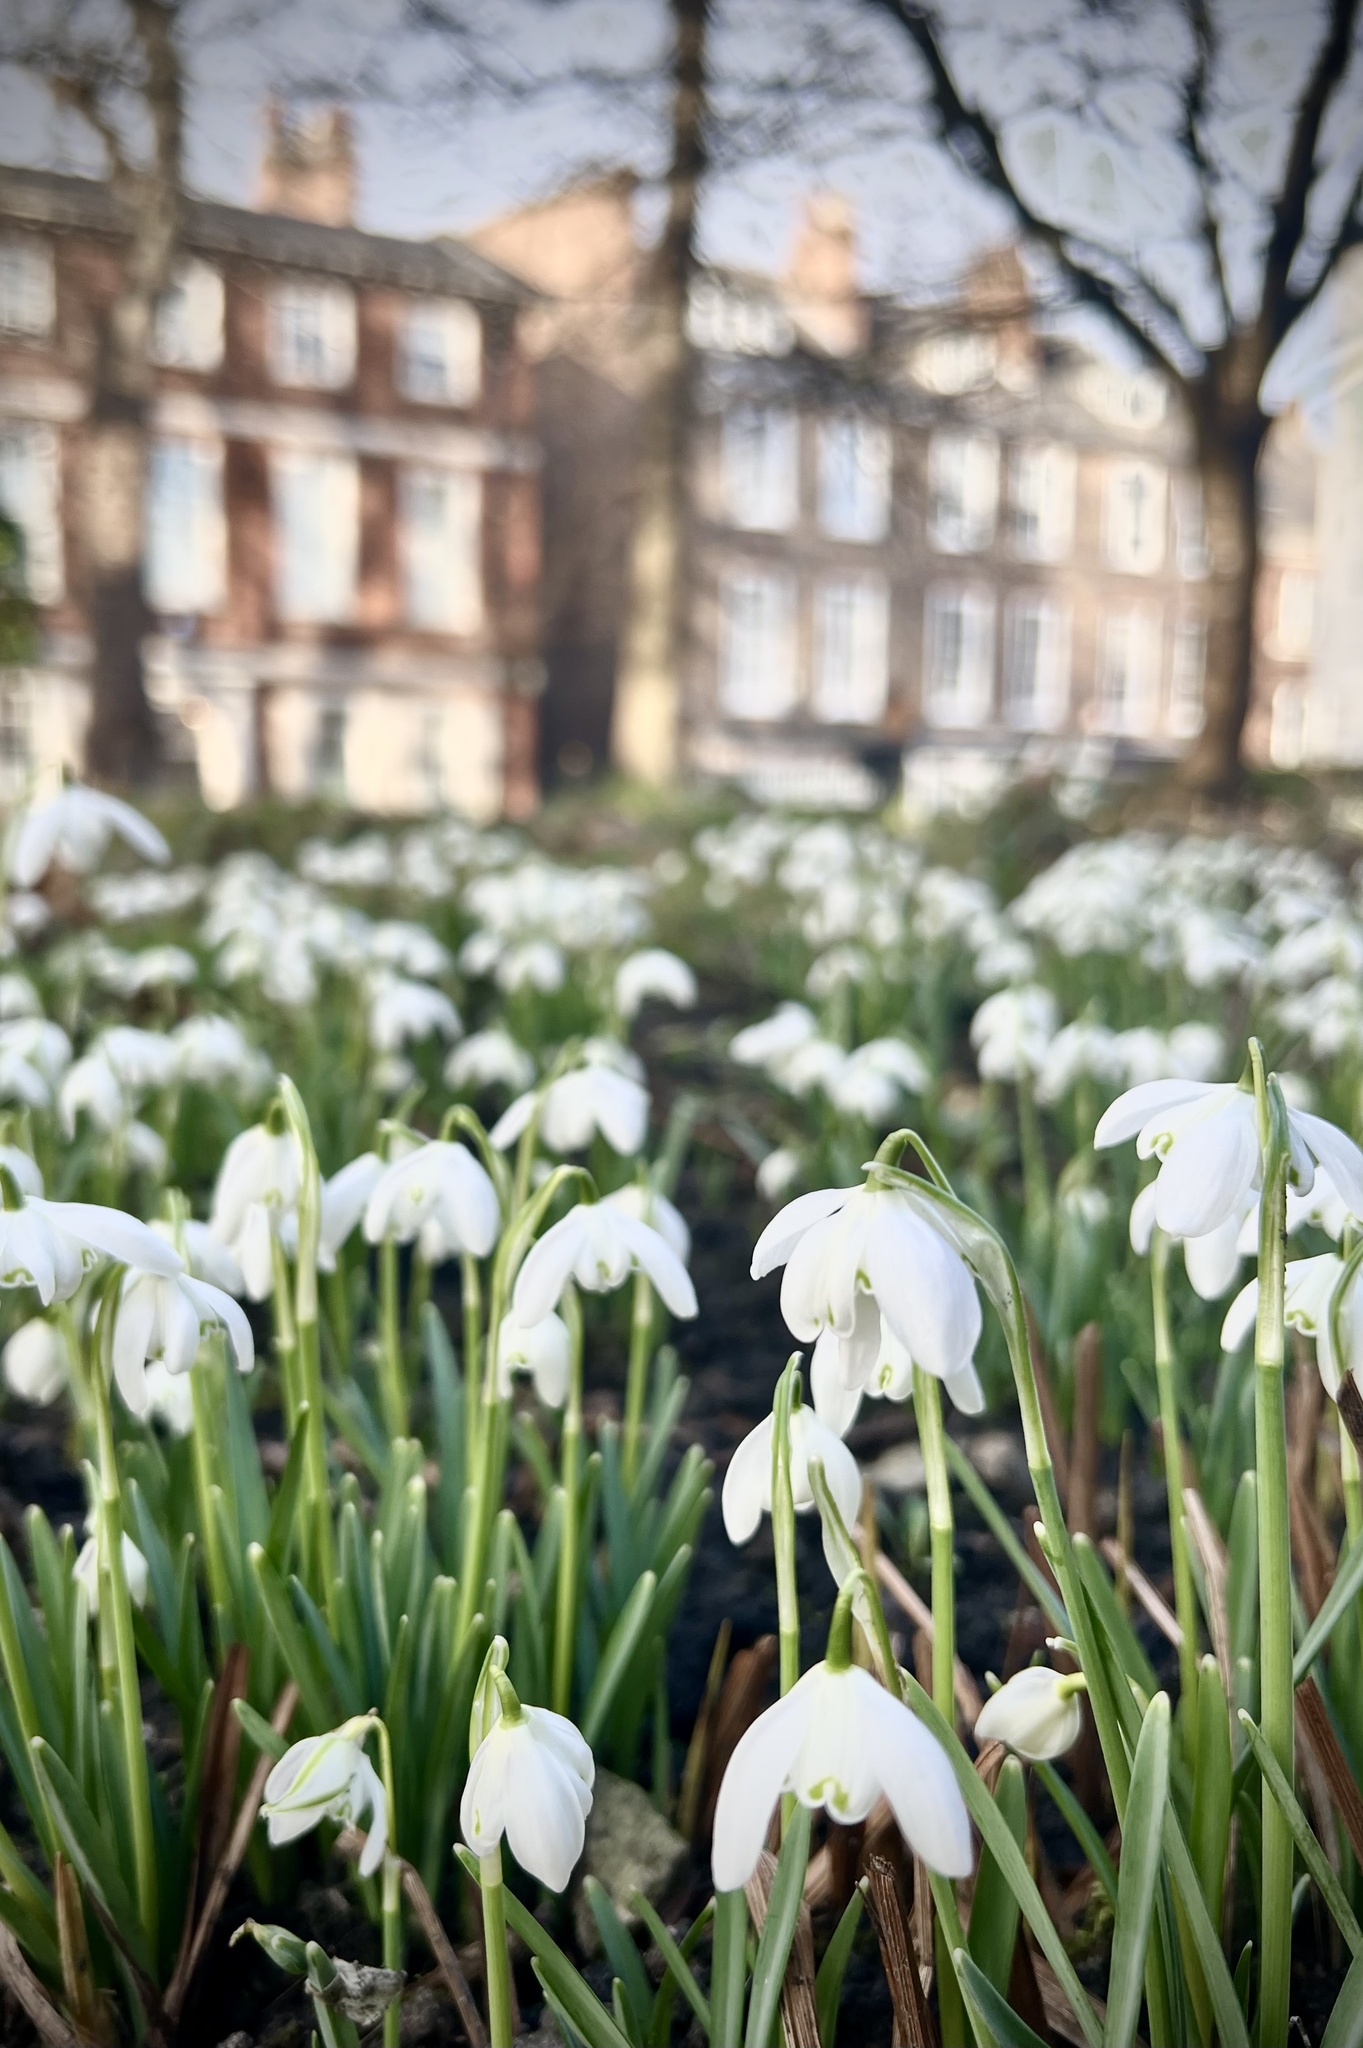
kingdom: Plantae
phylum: Tracheophyta
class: Liliopsida
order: Asparagales
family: Amaryllidaceae
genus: Galanthus
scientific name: Galanthus nivalis
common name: Snowdrop
